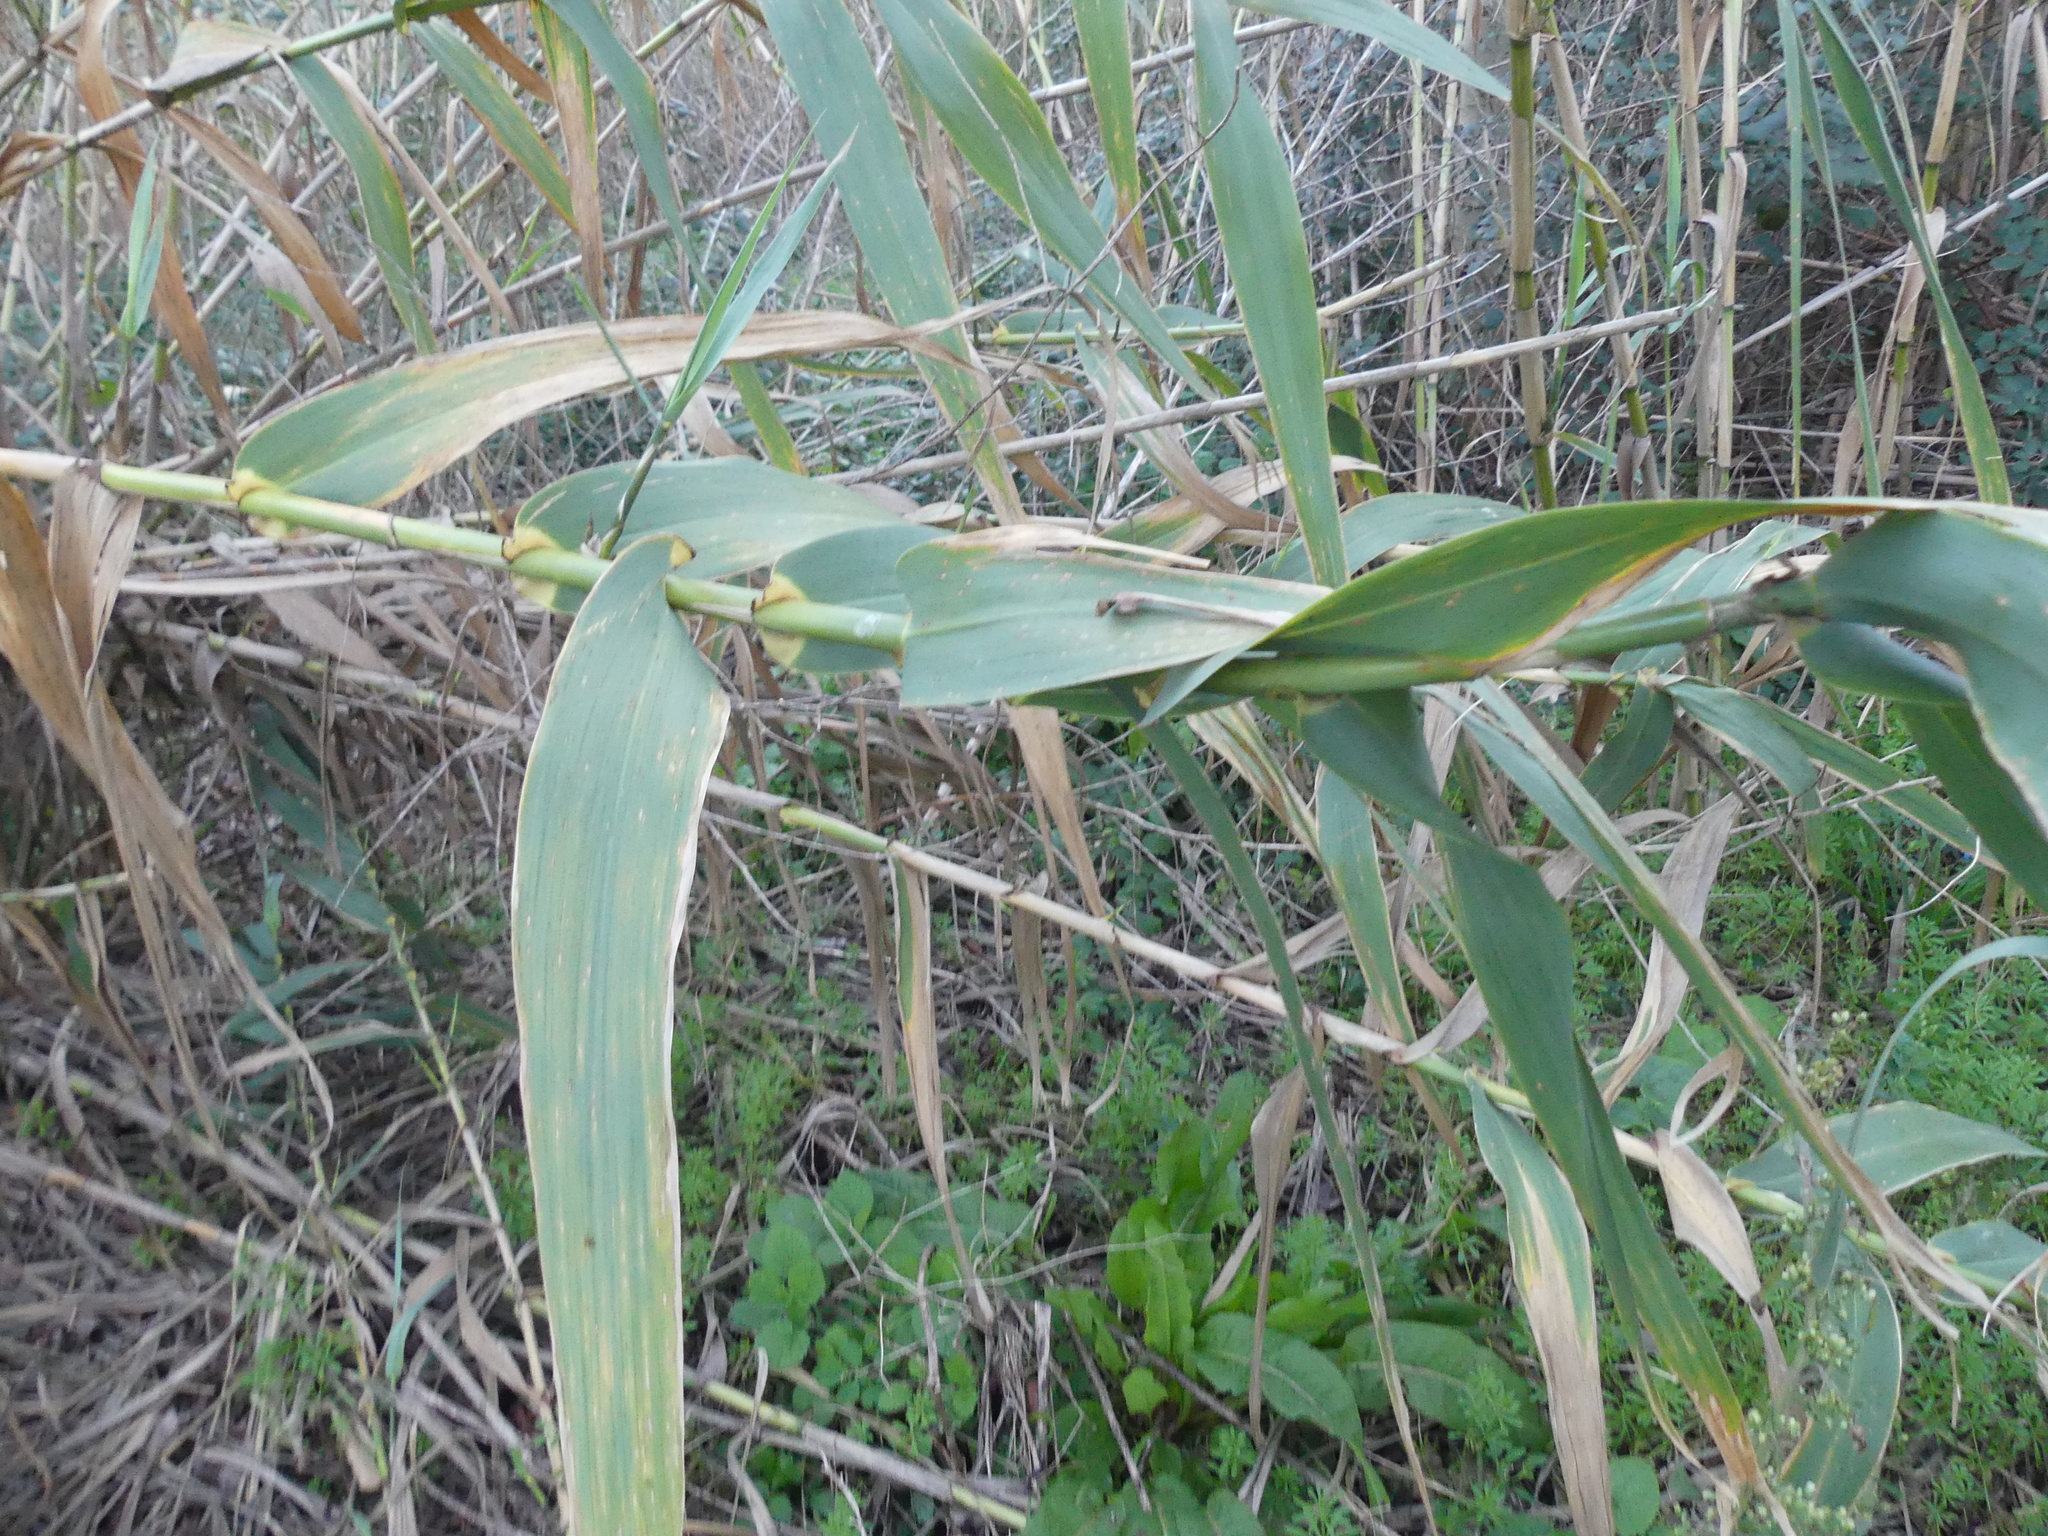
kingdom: Plantae
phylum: Tracheophyta
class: Liliopsida
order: Poales
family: Poaceae
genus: Arundo
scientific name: Arundo donax
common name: Giant reed
